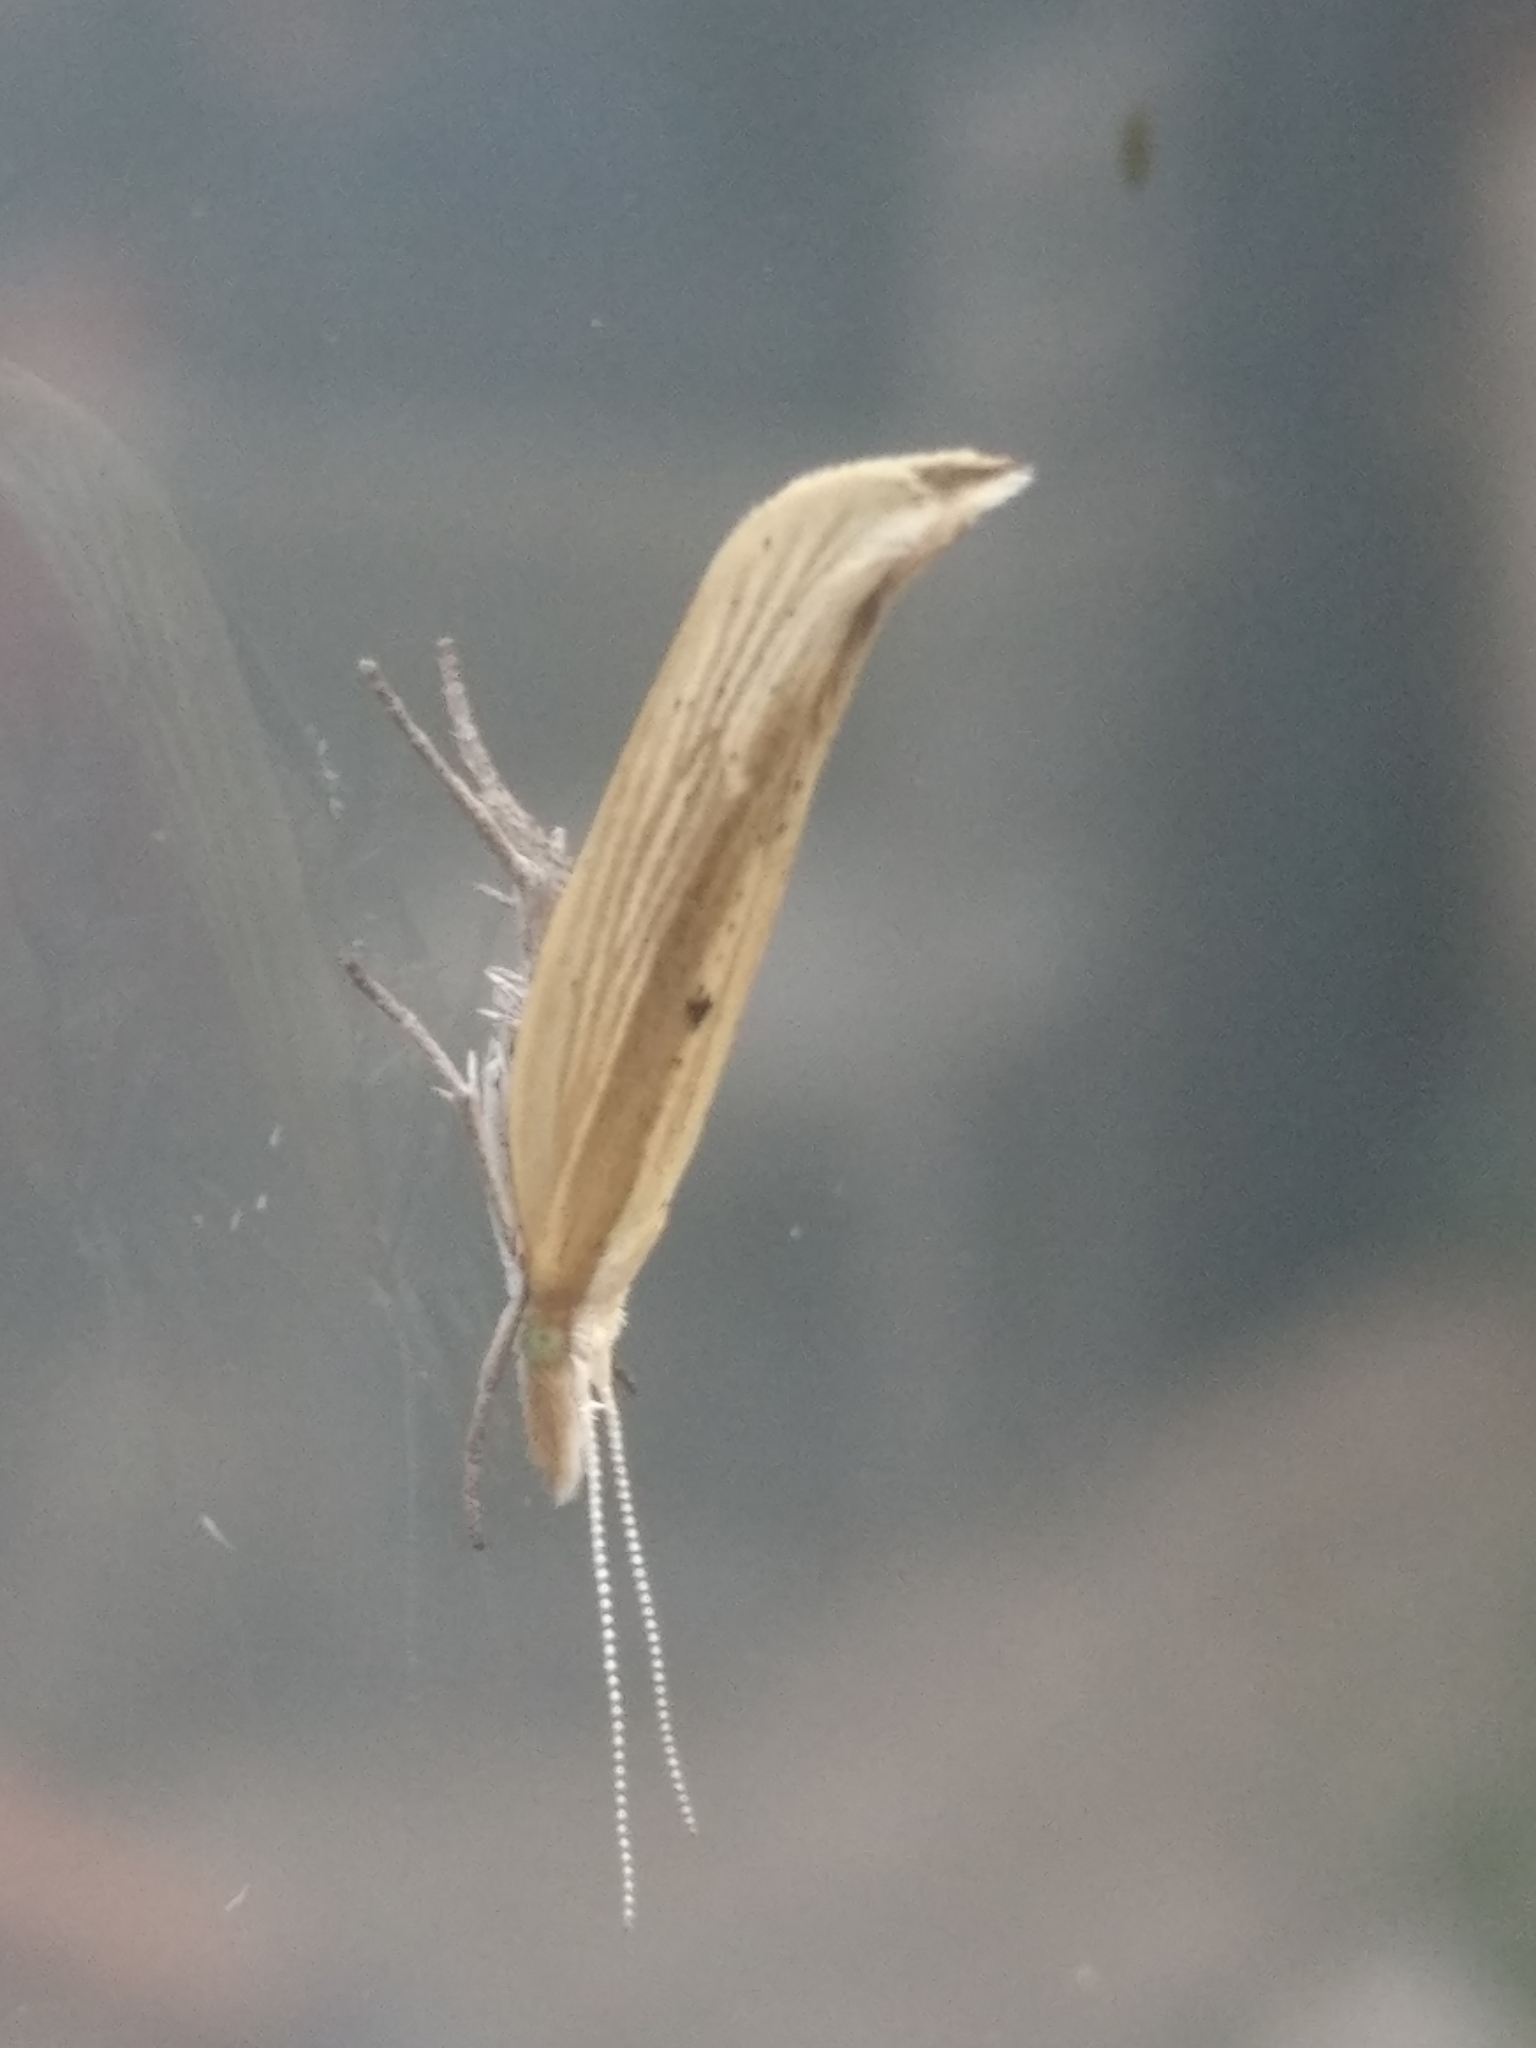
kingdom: Animalia
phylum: Arthropoda
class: Insecta
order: Lepidoptera
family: Ypsolophidae
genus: Ypsolopha
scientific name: Ypsolopha nemorella
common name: Hooked smudge
